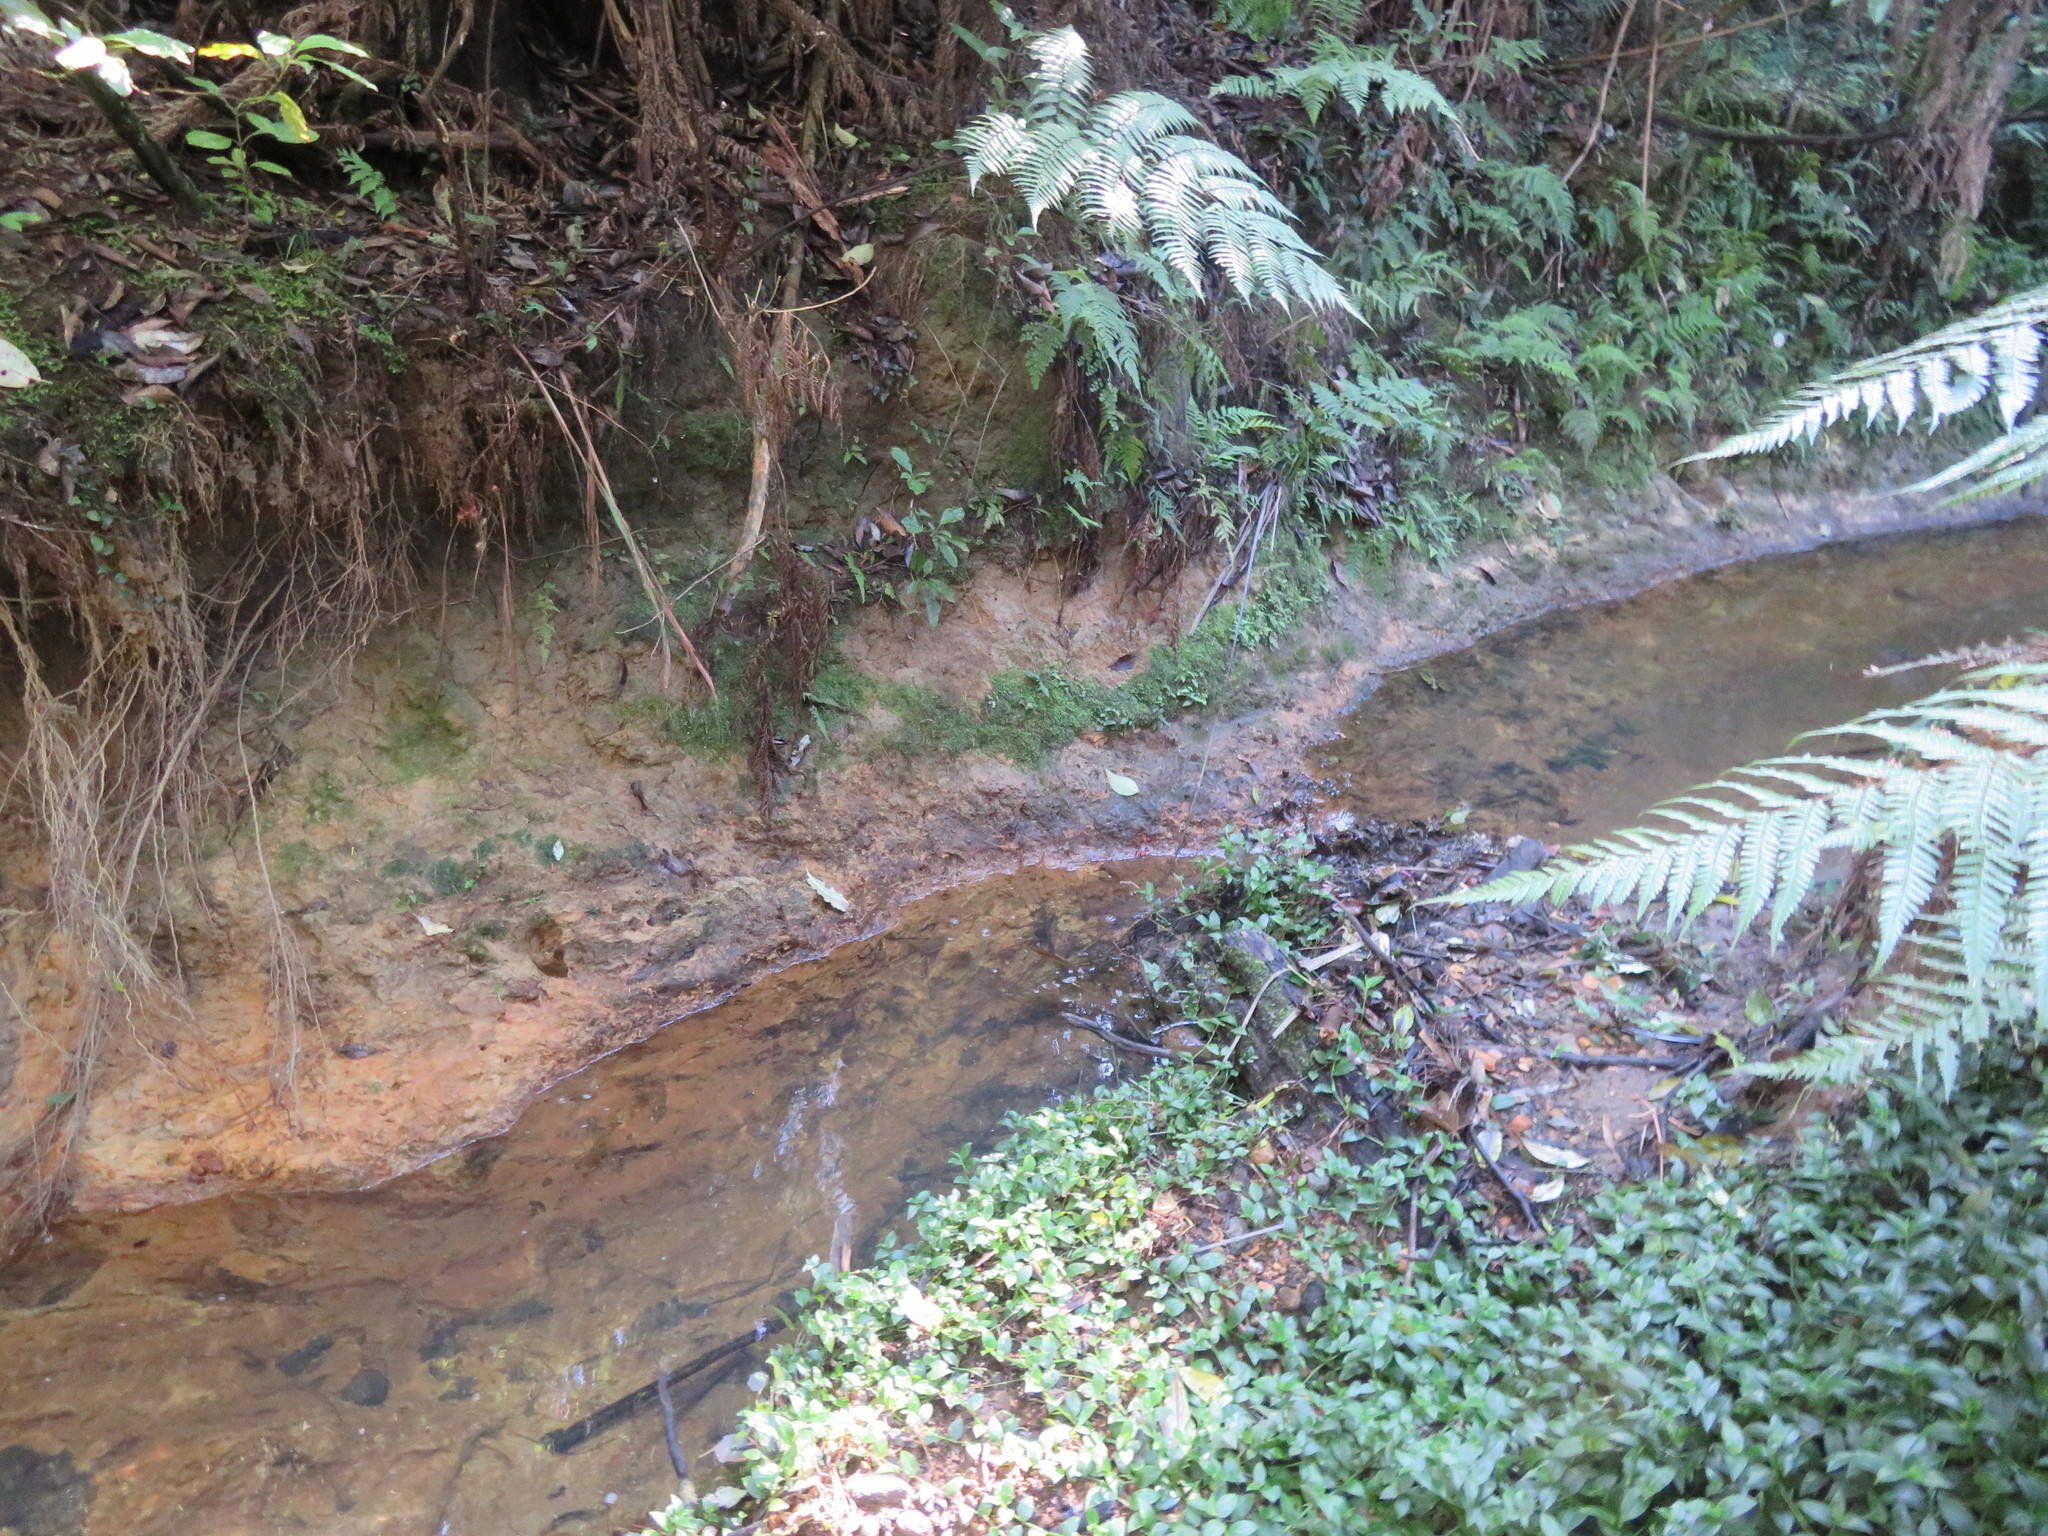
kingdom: Plantae
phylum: Tracheophyta
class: Liliopsida
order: Commelinales
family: Commelinaceae
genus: Tradescantia
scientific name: Tradescantia fluminensis
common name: Wandering-jew
